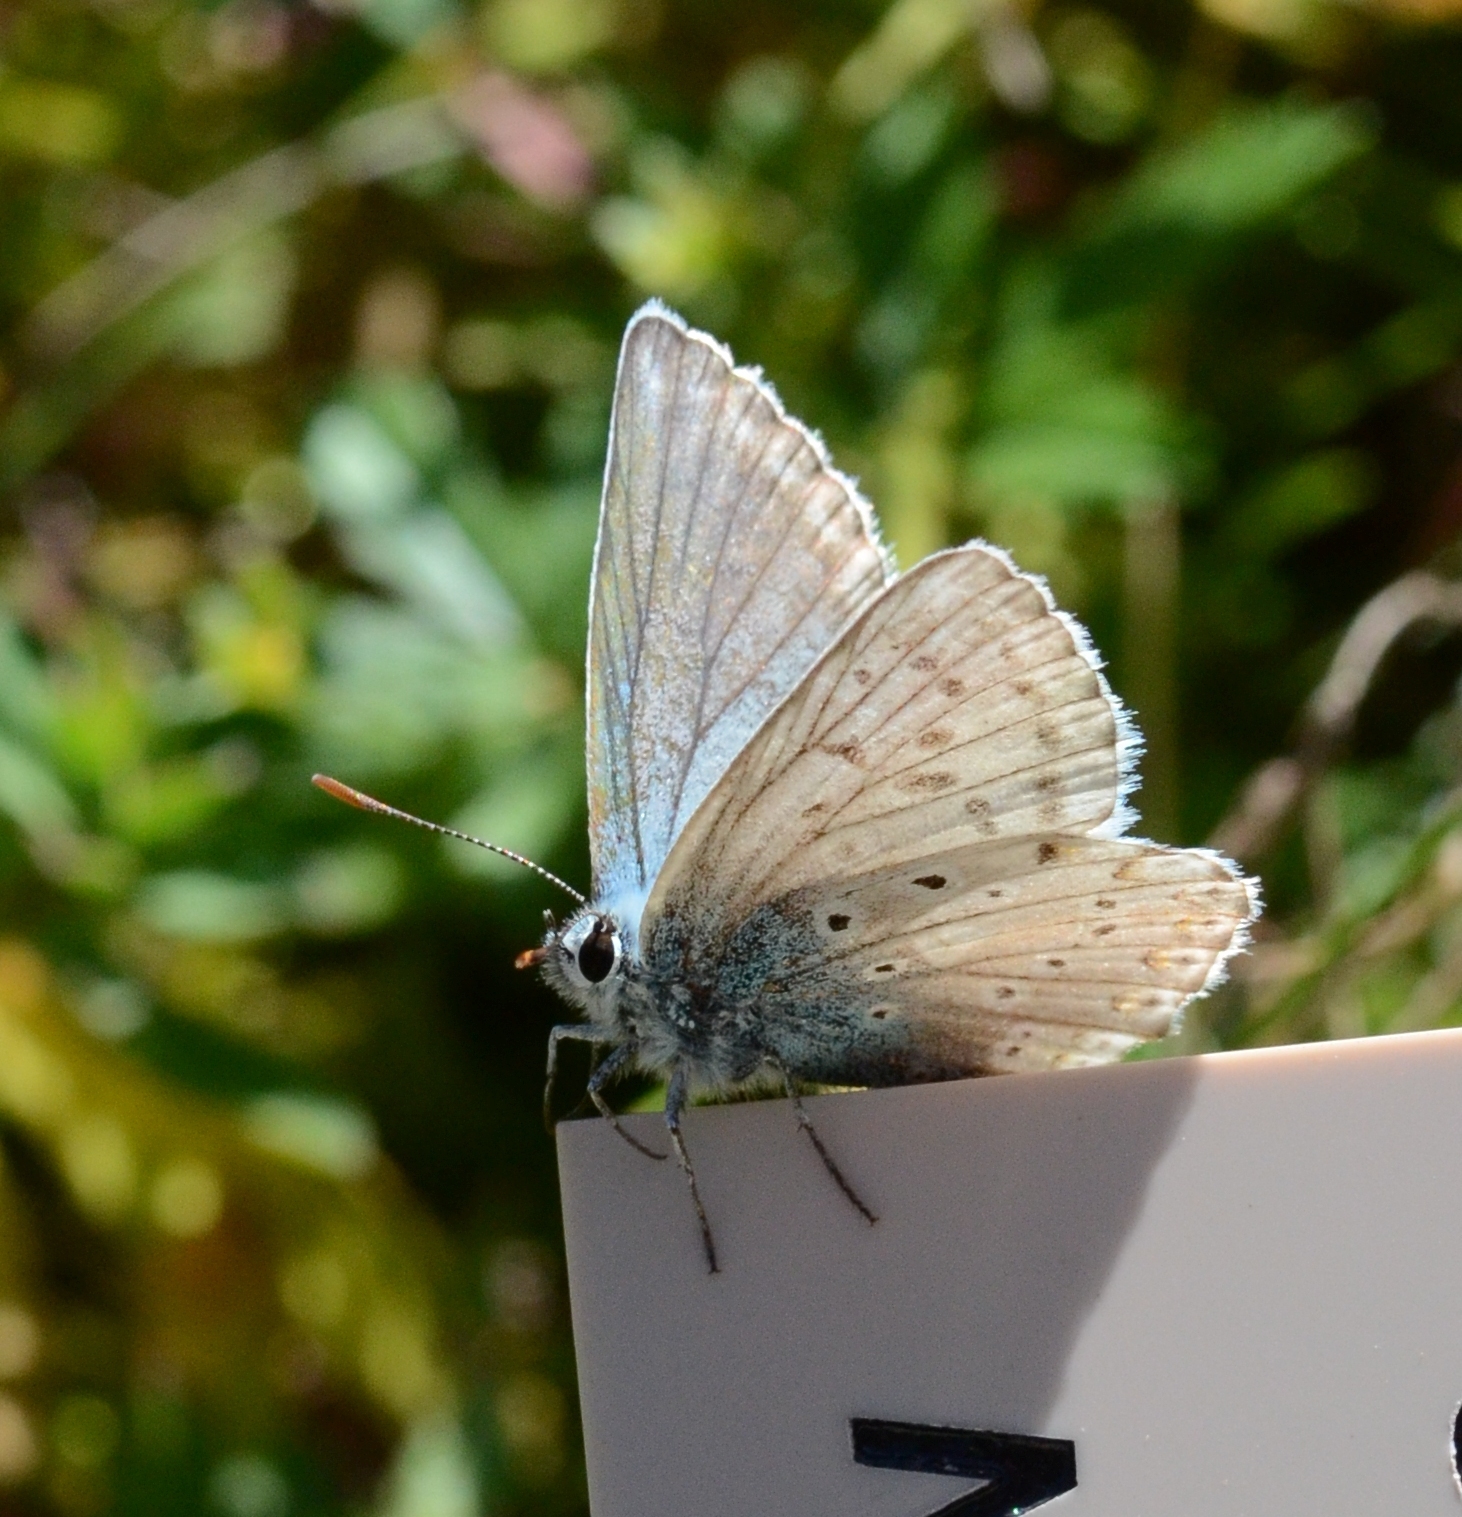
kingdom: Animalia
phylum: Arthropoda
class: Insecta
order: Lepidoptera
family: Lycaenidae
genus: Lysandra
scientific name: Lysandra coridon
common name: Chalkhill blue
